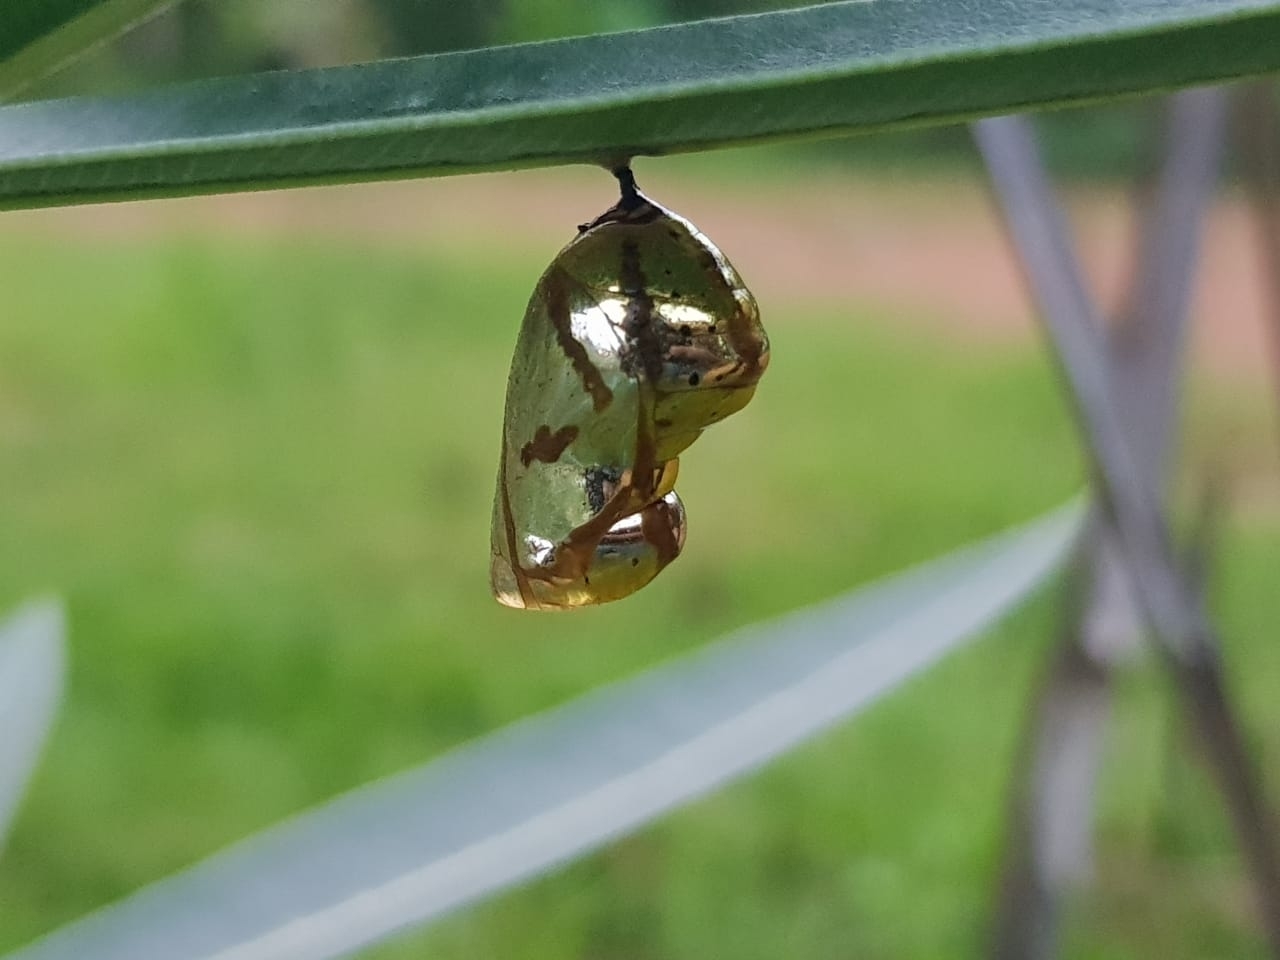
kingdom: Animalia
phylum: Arthropoda
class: Insecta
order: Lepidoptera
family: Nymphalidae
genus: Euploea
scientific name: Euploea core
